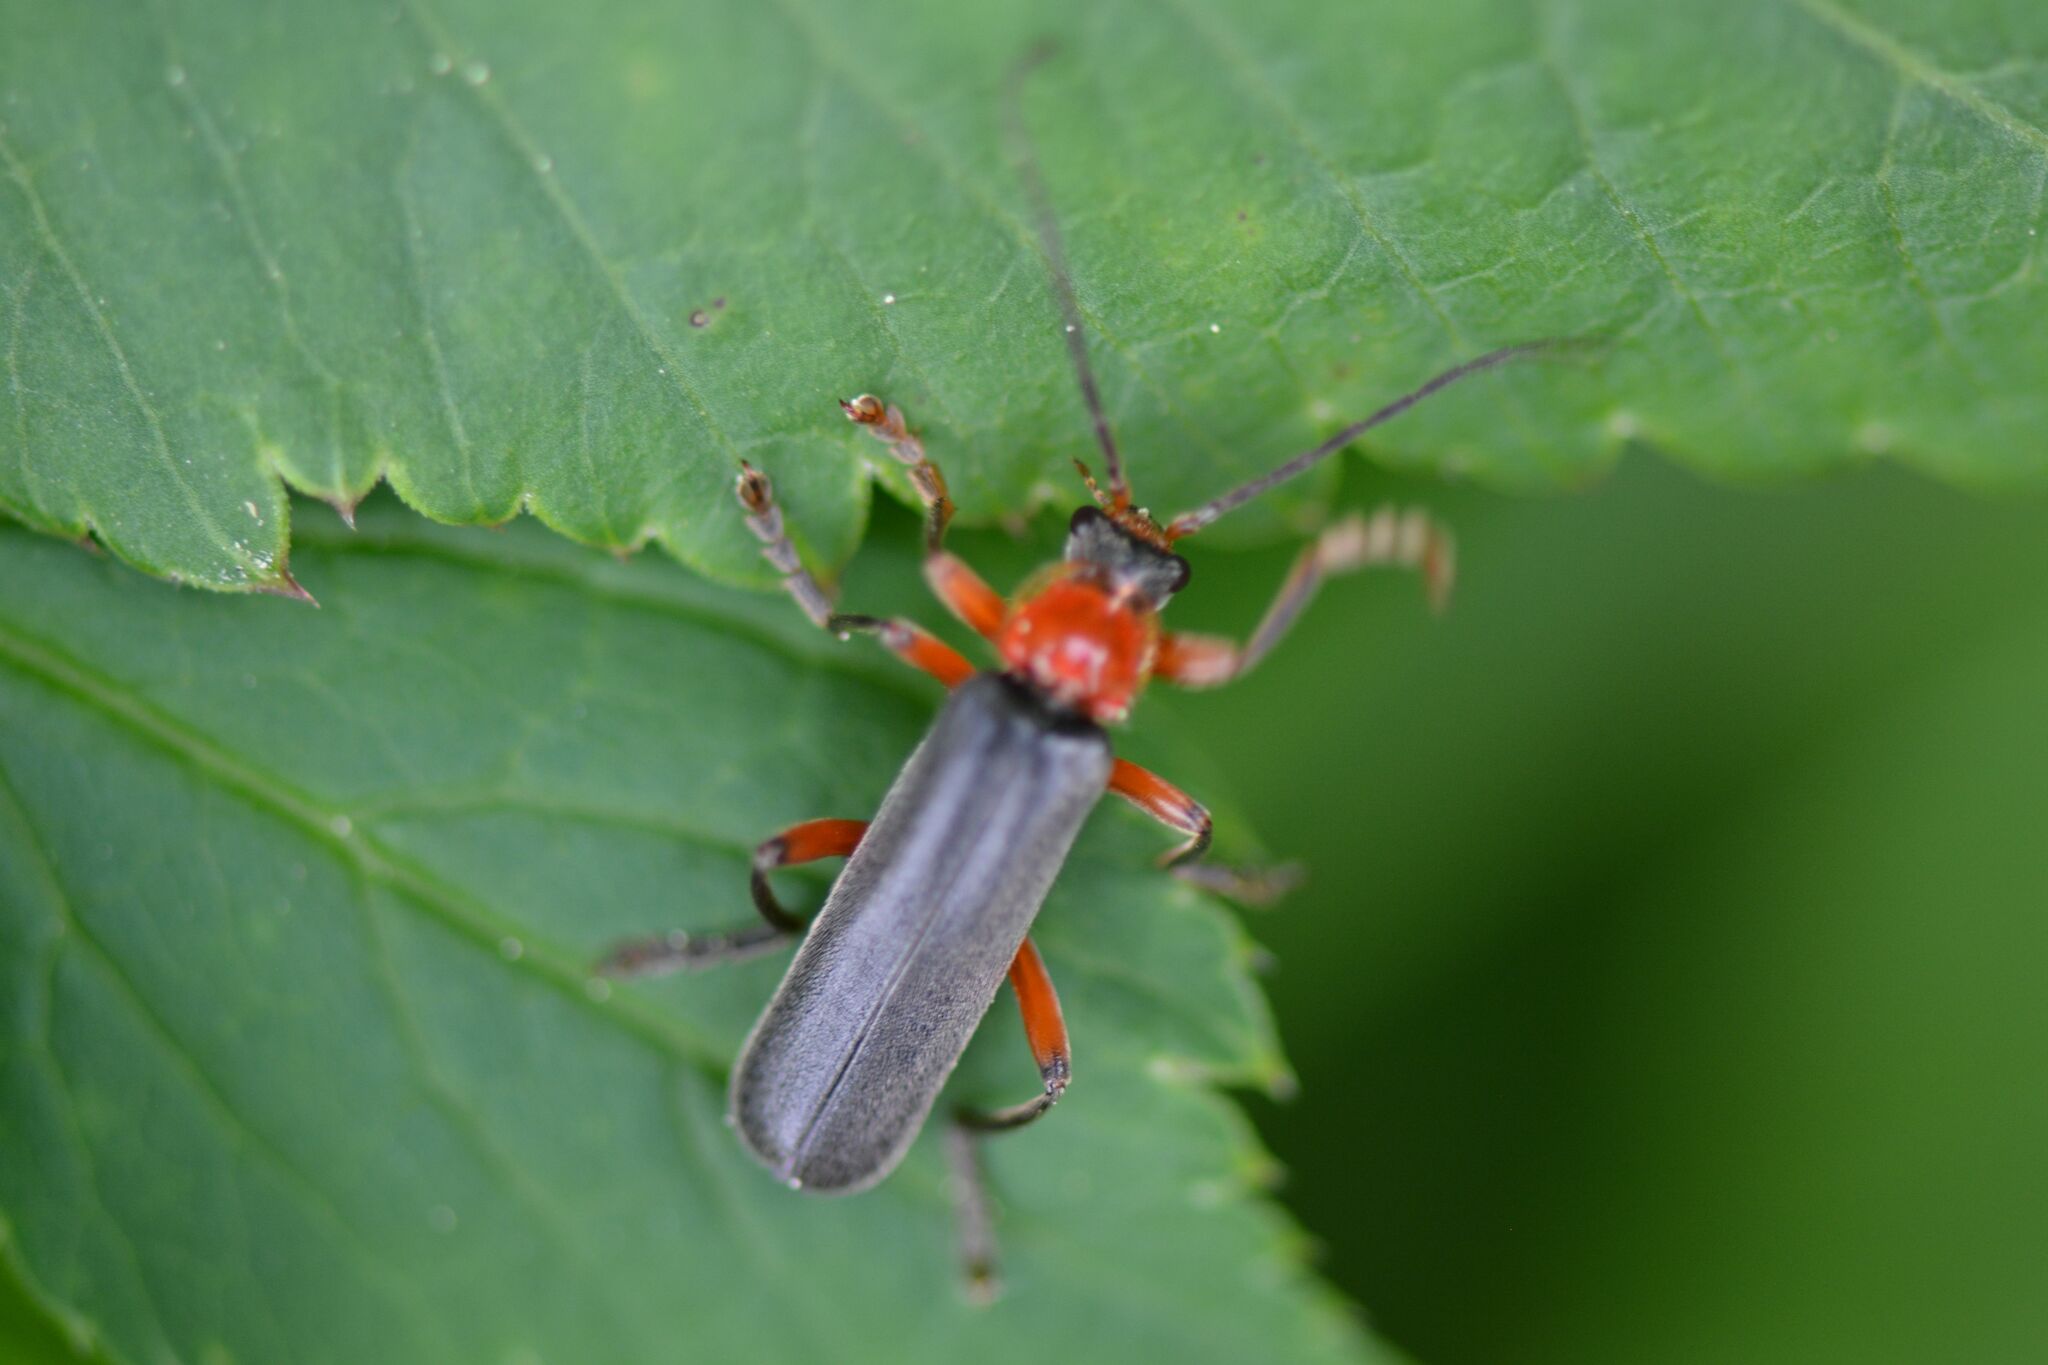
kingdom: Animalia
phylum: Arthropoda
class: Insecta
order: Coleoptera
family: Cantharidae
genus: Cantharis
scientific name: Cantharis pellucida
